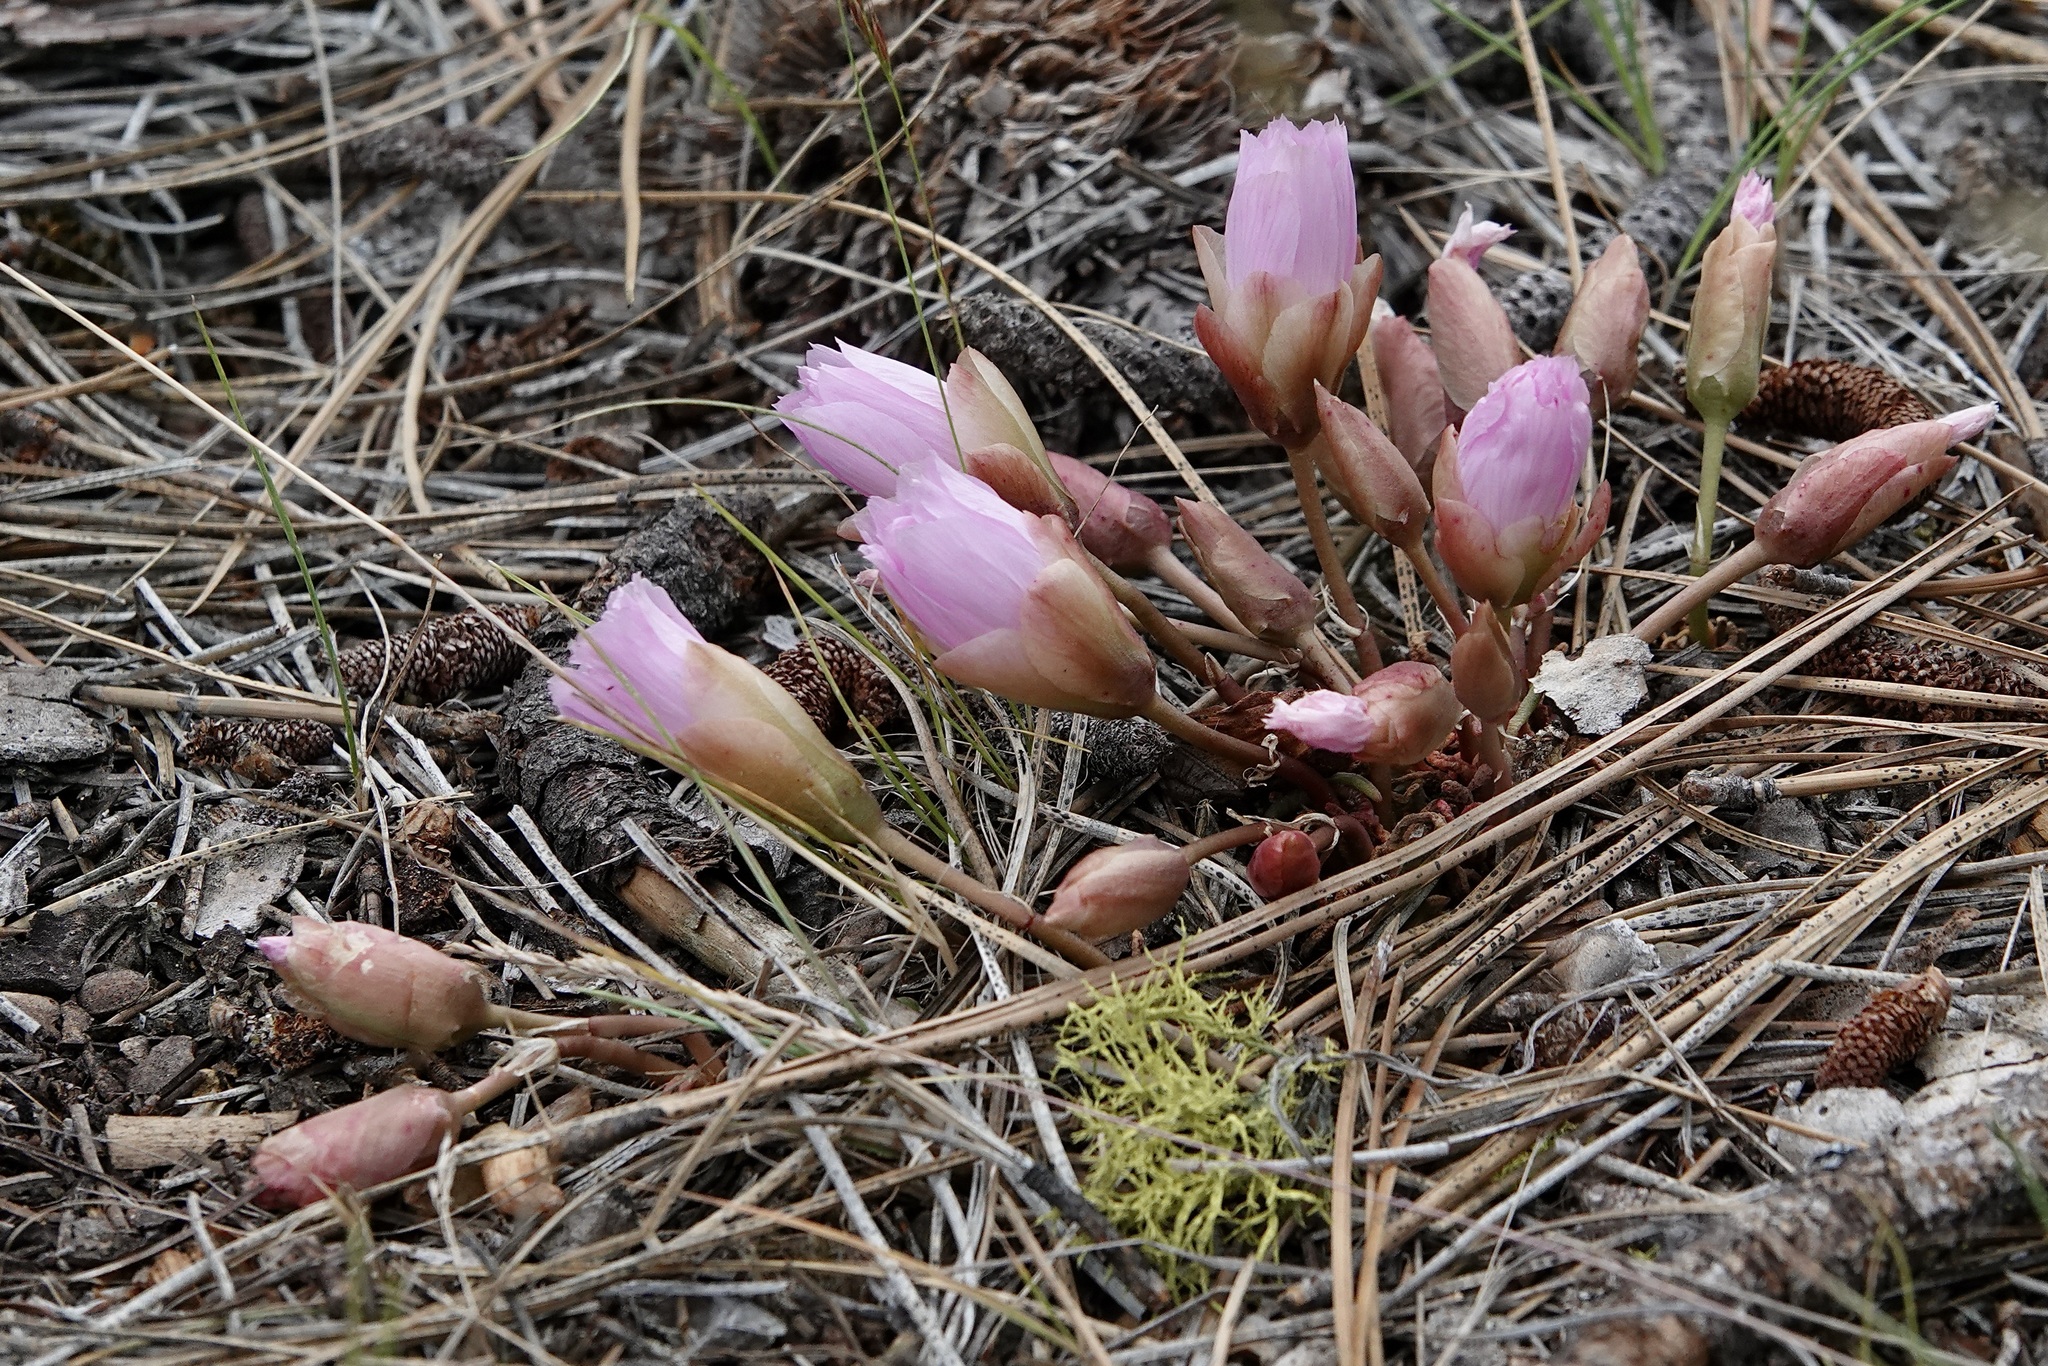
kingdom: Plantae
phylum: Tracheophyta
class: Magnoliopsida
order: Caryophyllales
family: Montiaceae
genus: Lewisia
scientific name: Lewisia rediviva
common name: Bitter-root
